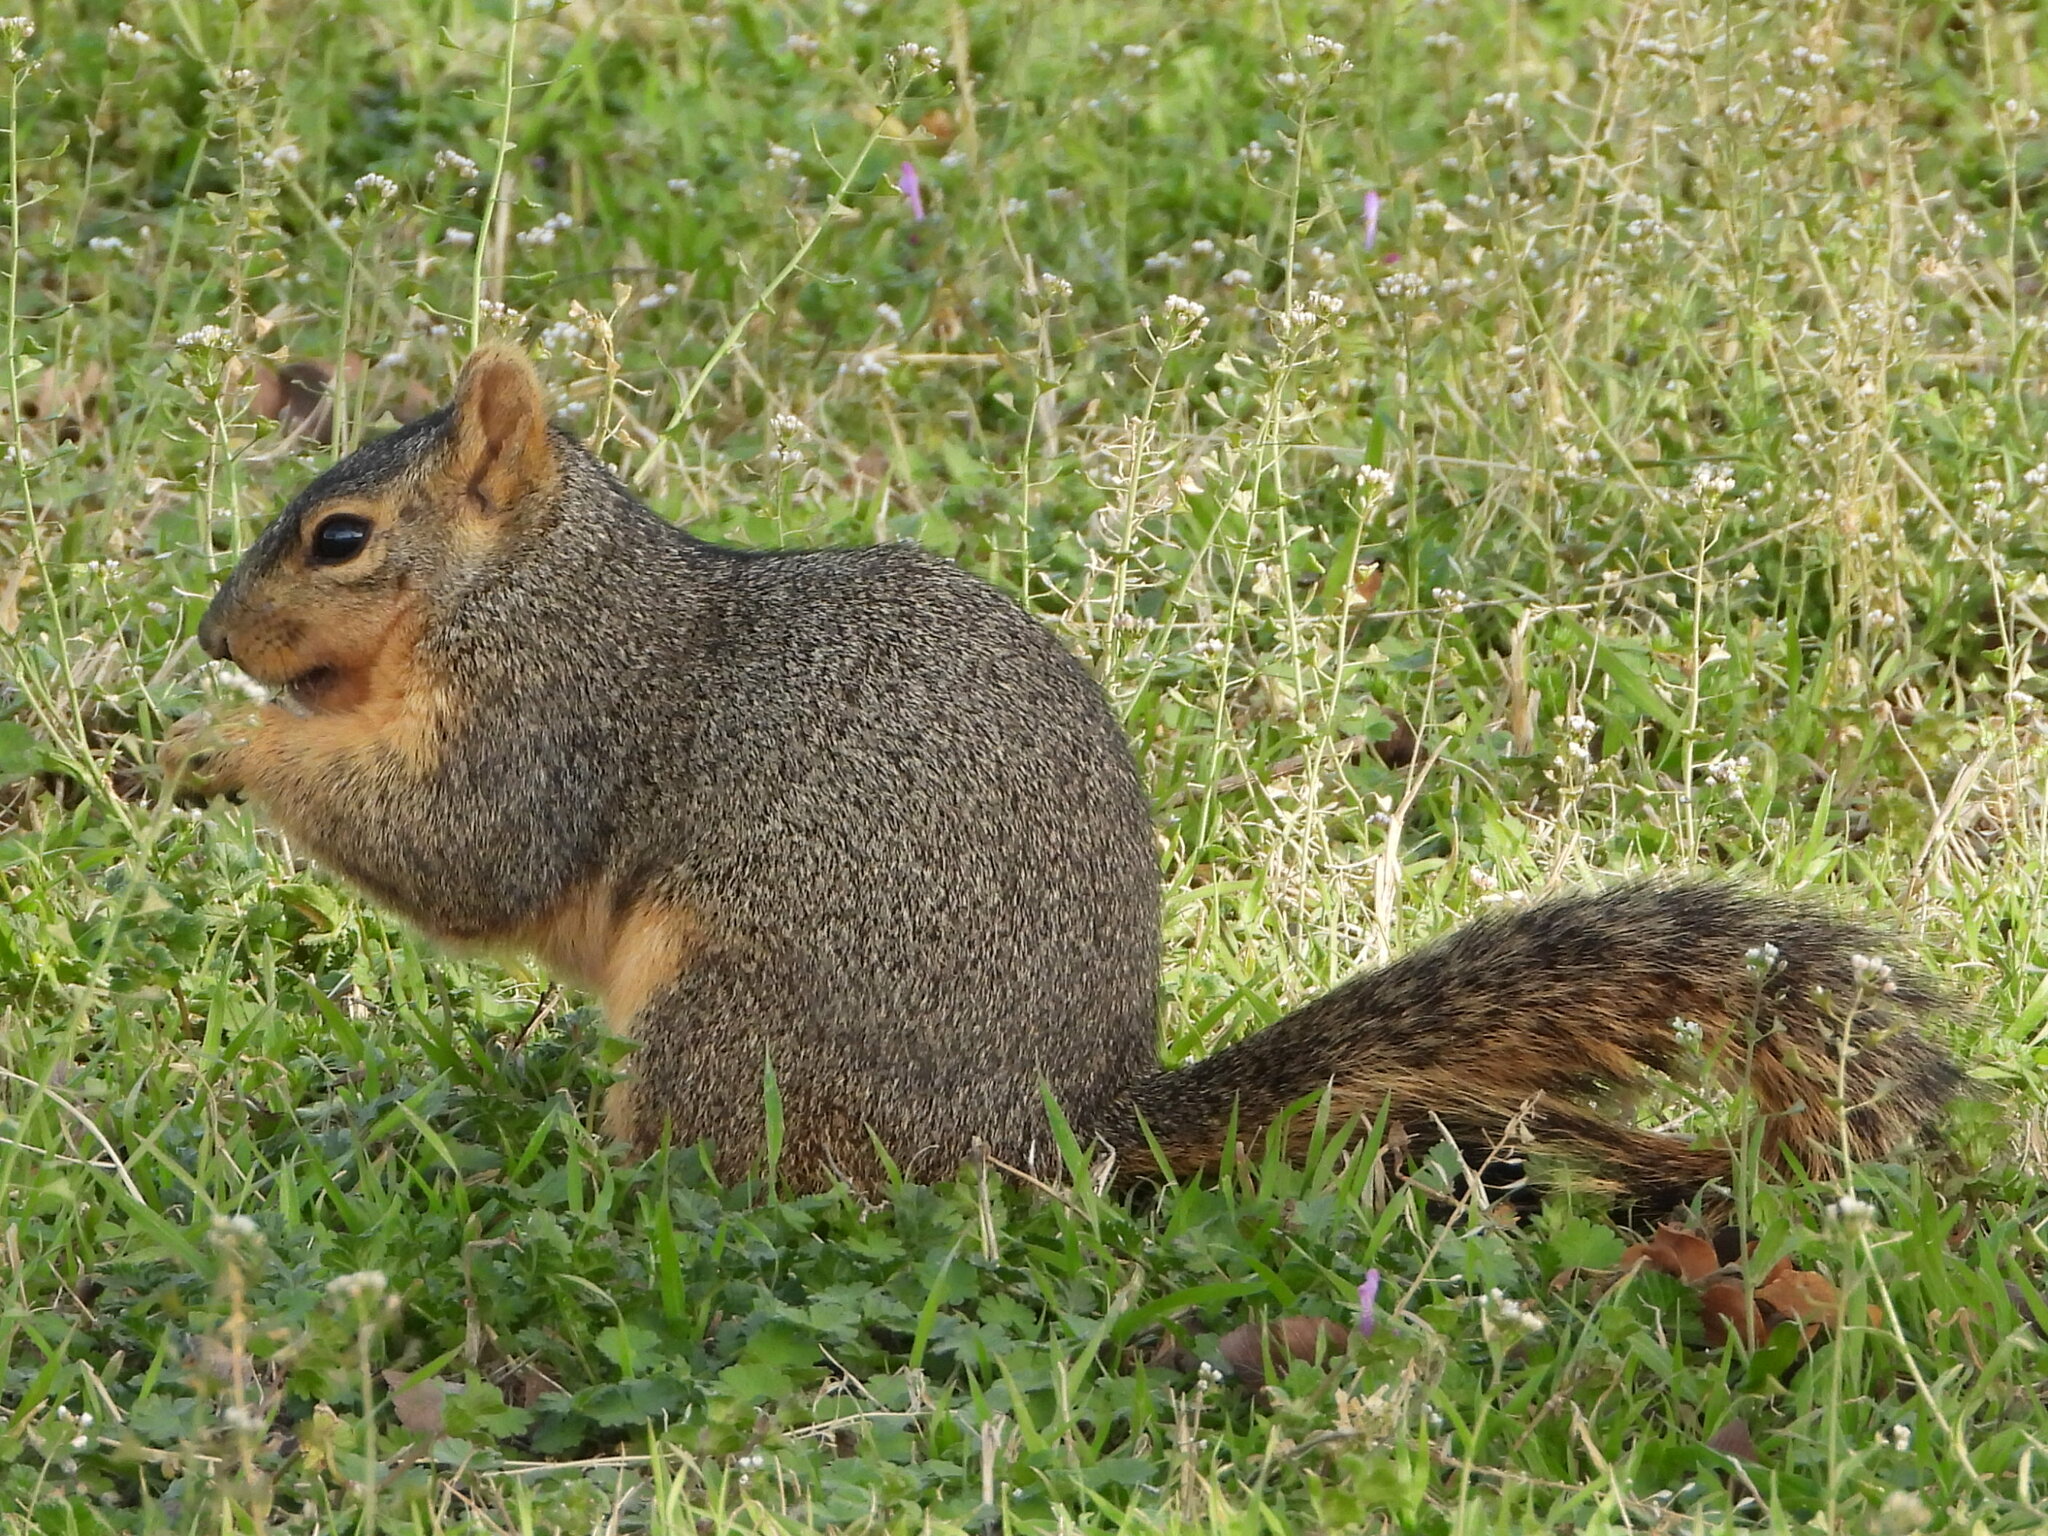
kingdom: Animalia
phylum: Chordata
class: Mammalia
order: Rodentia
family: Sciuridae
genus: Sciurus
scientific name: Sciurus niger
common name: Fox squirrel
